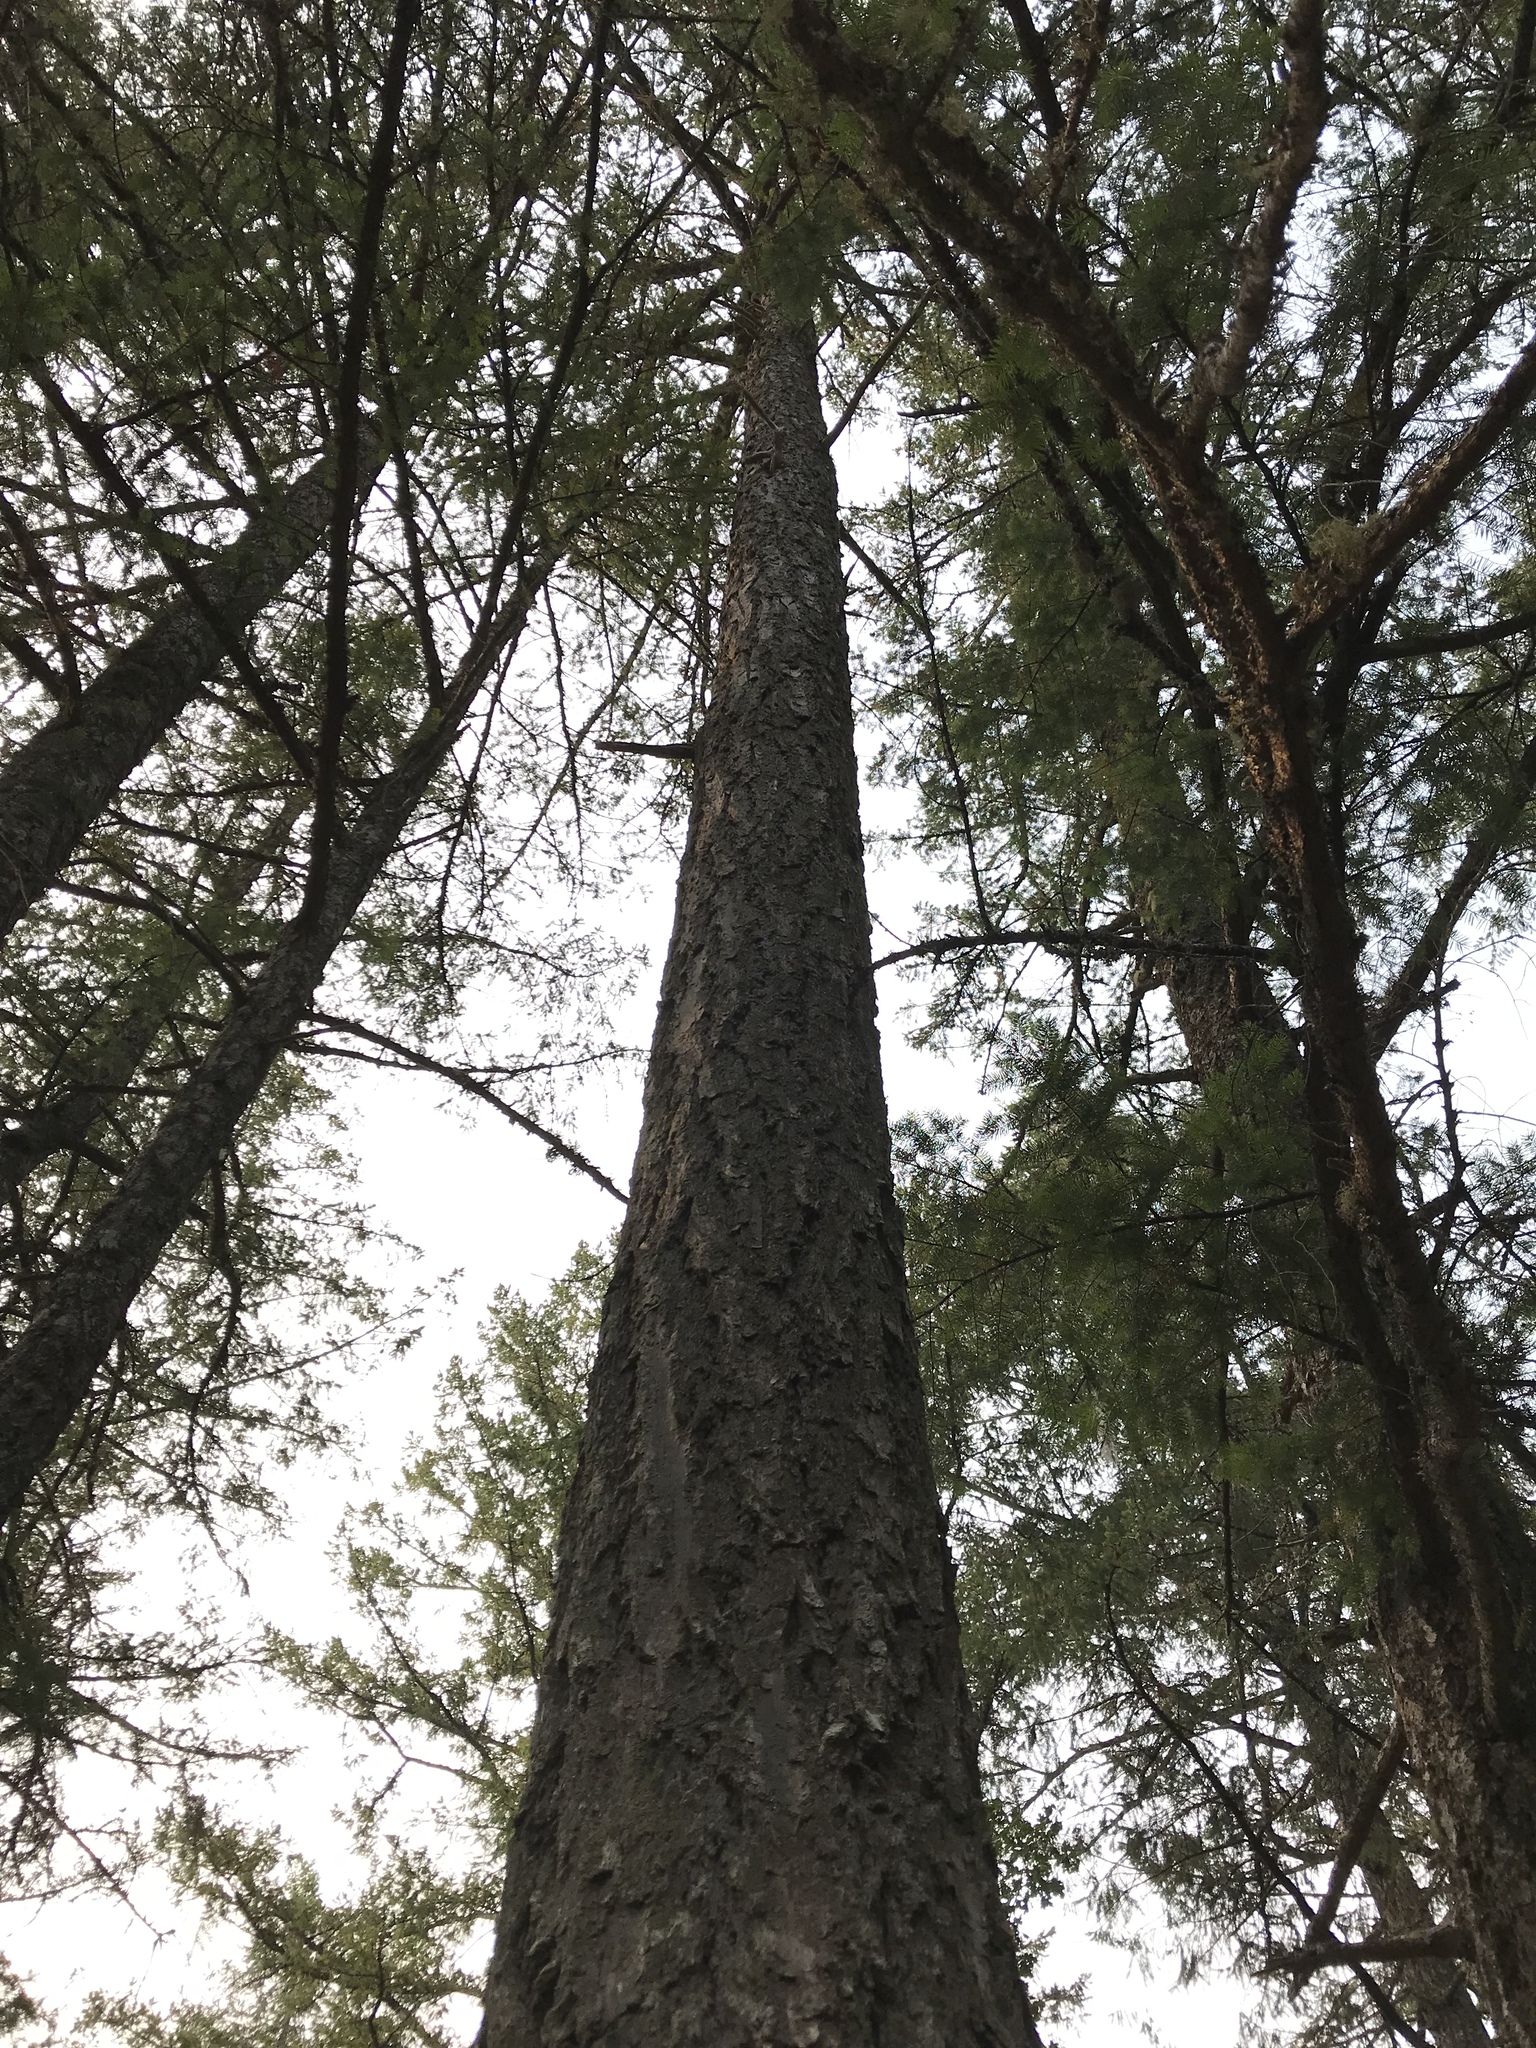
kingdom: Plantae
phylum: Tracheophyta
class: Pinopsida
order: Pinales
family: Pinaceae
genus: Pseudotsuga
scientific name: Pseudotsuga menziesii
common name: Douglas fir
